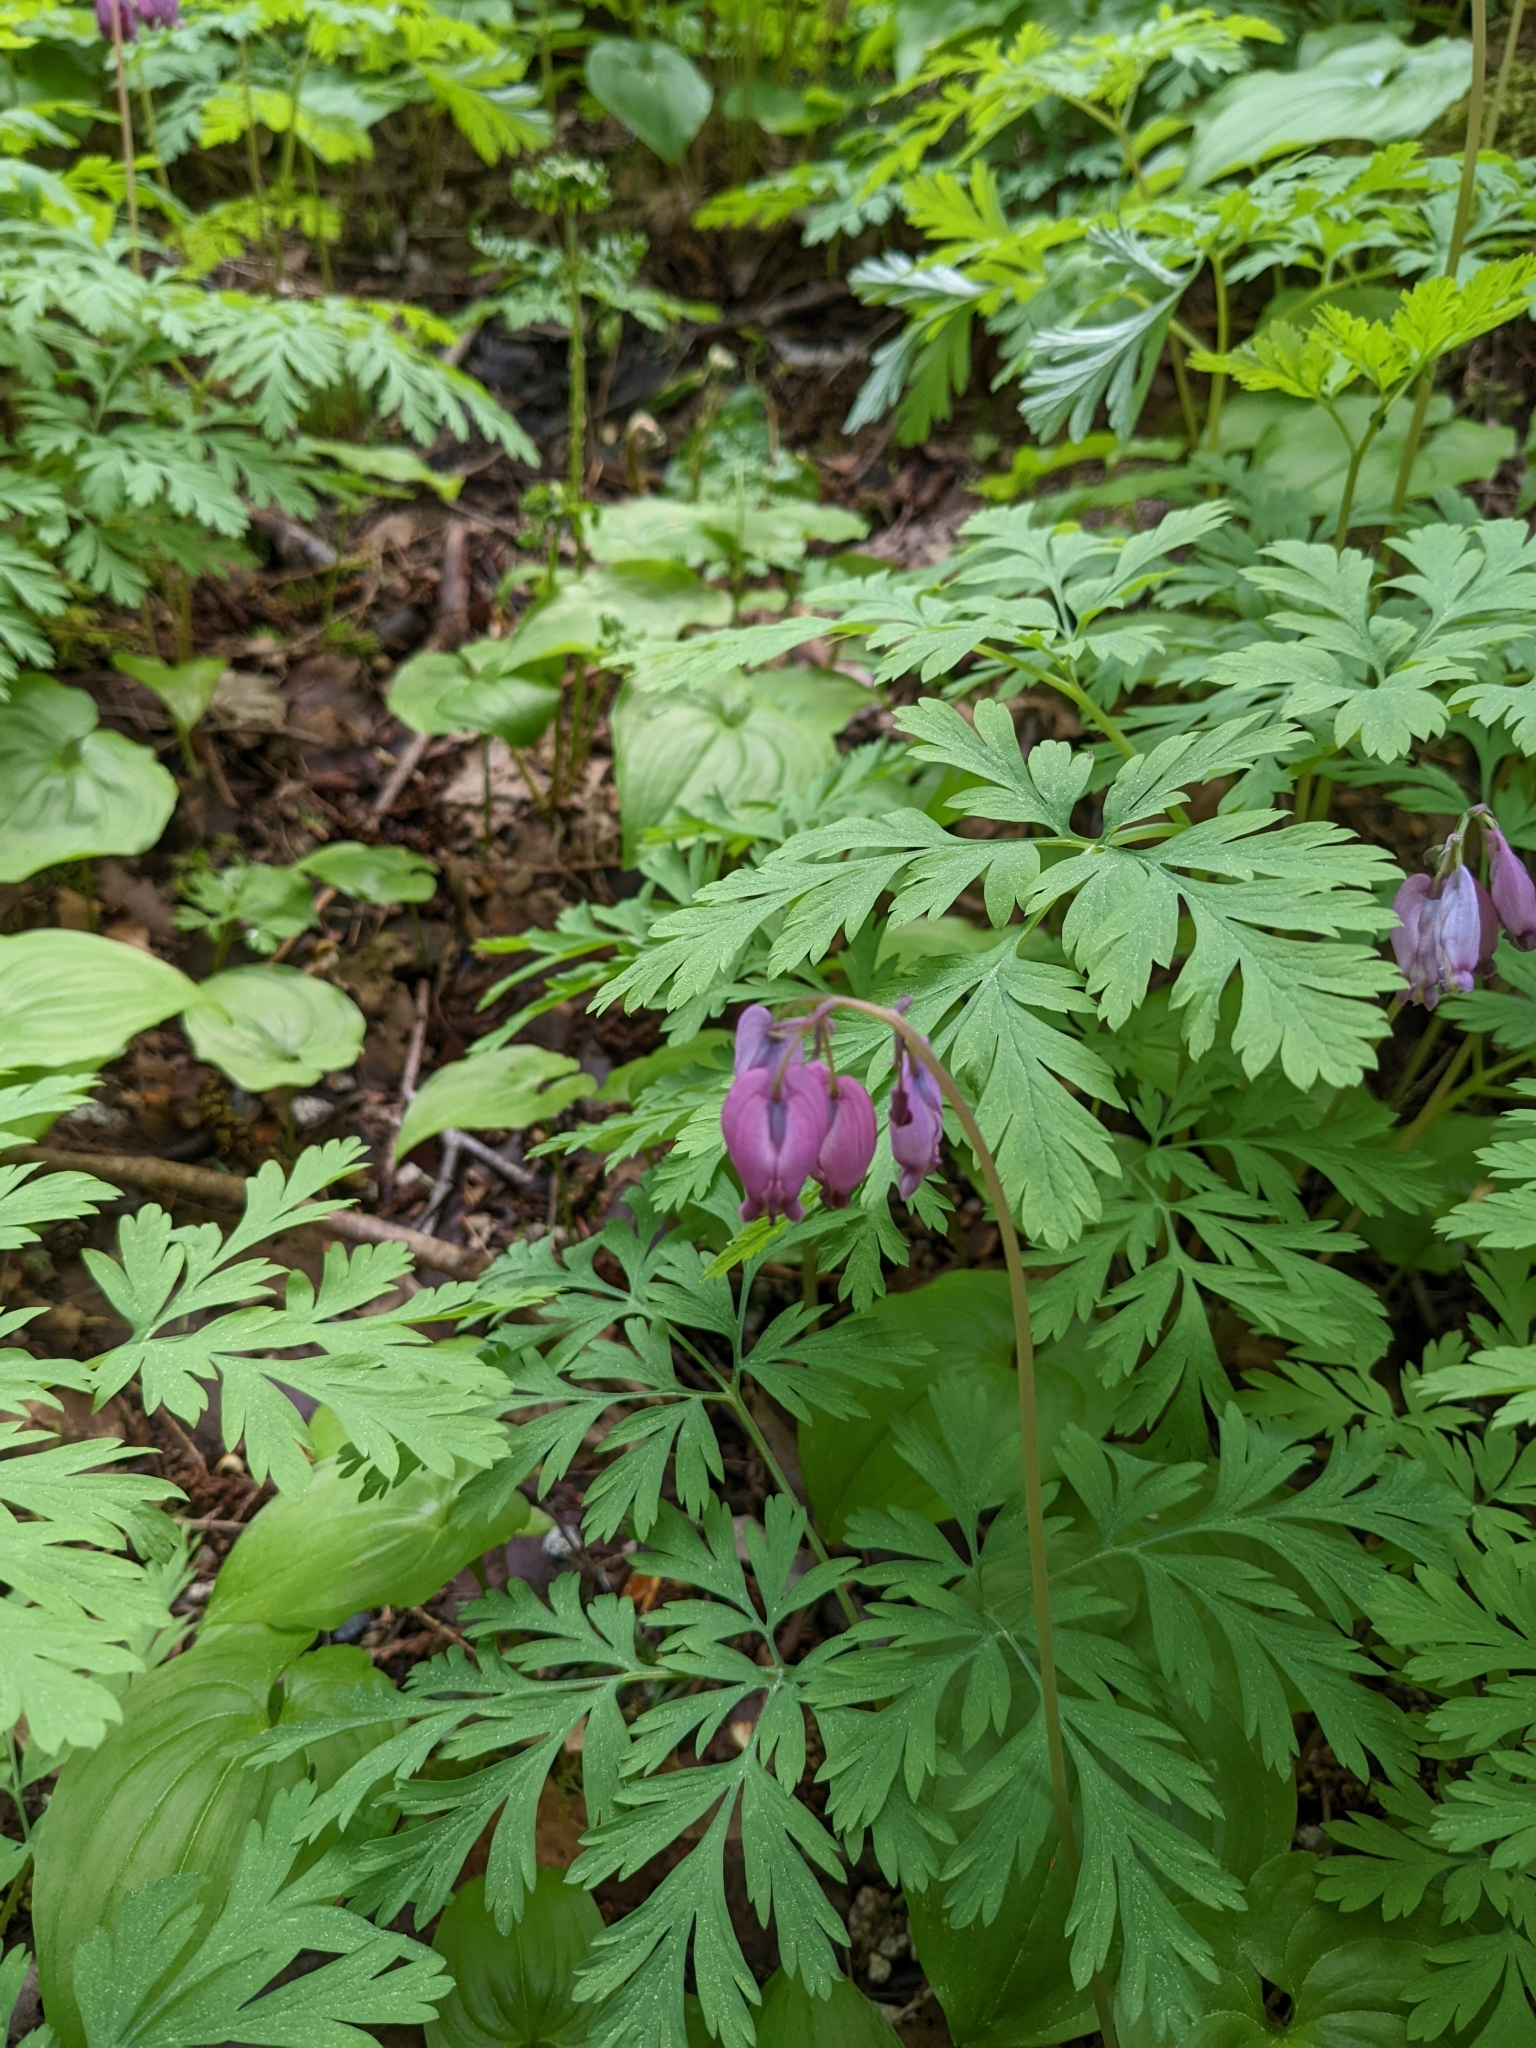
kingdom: Plantae
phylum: Tracheophyta
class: Magnoliopsida
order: Ranunculales
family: Papaveraceae
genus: Dicentra
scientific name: Dicentra formosa
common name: Bleeding-heart
